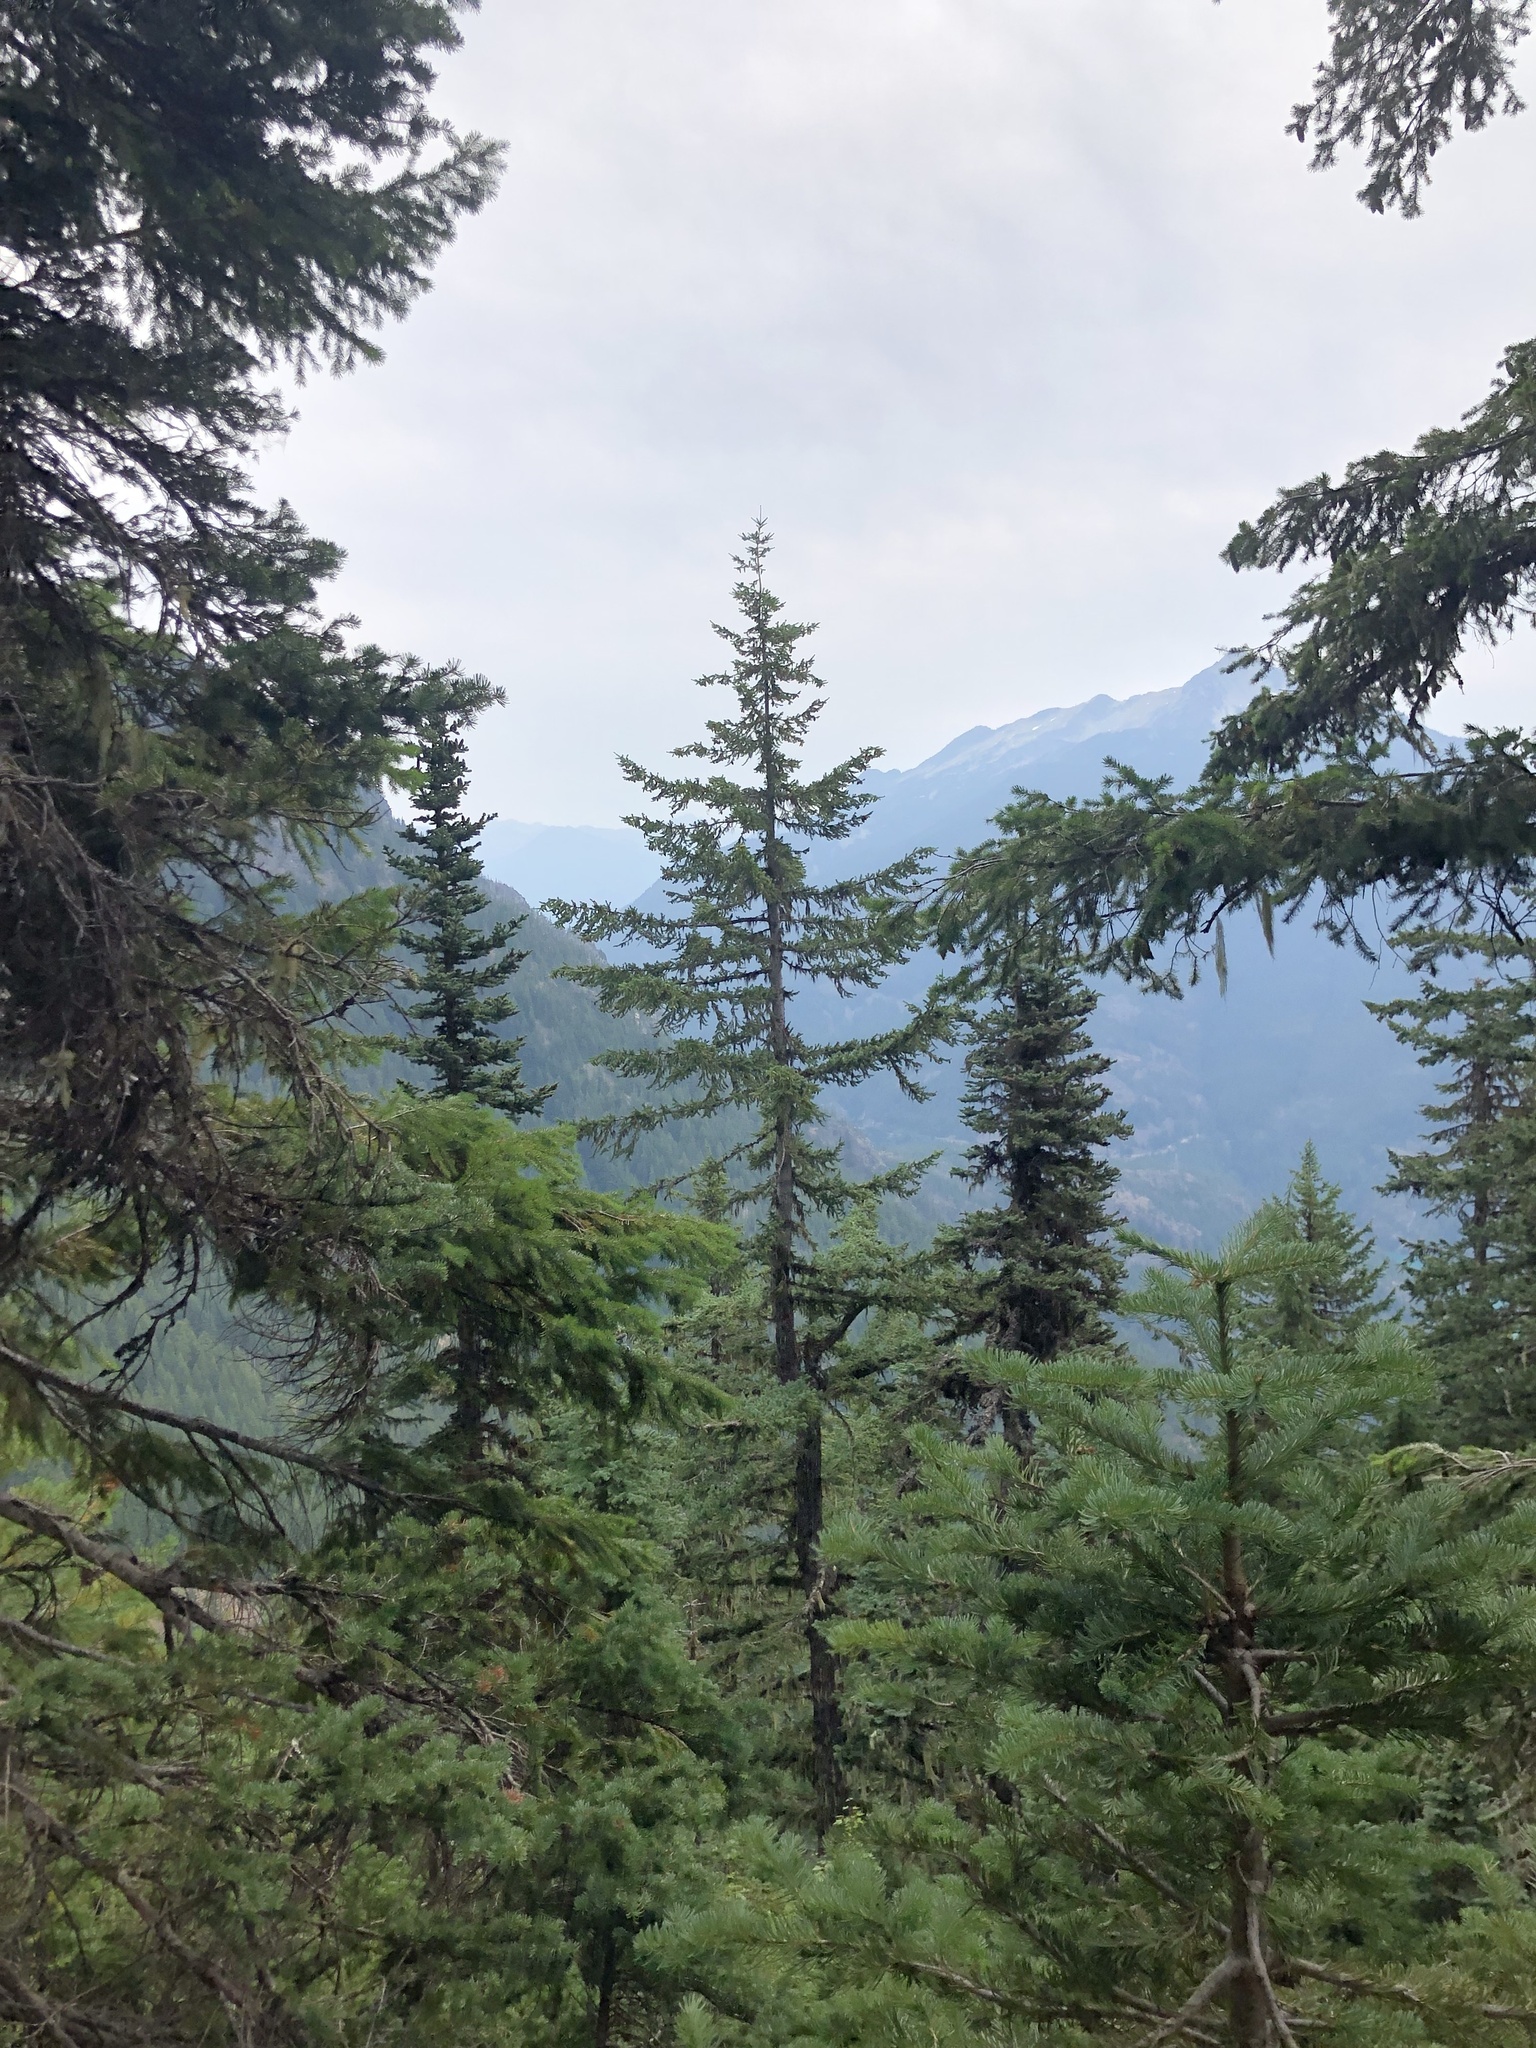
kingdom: Plantae
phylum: Tracheophyta
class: Pinopsida
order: Pinales
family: Pinaceae
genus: Pseudotsuga
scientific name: Pseudotsuga menziesii
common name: Douglas fir
